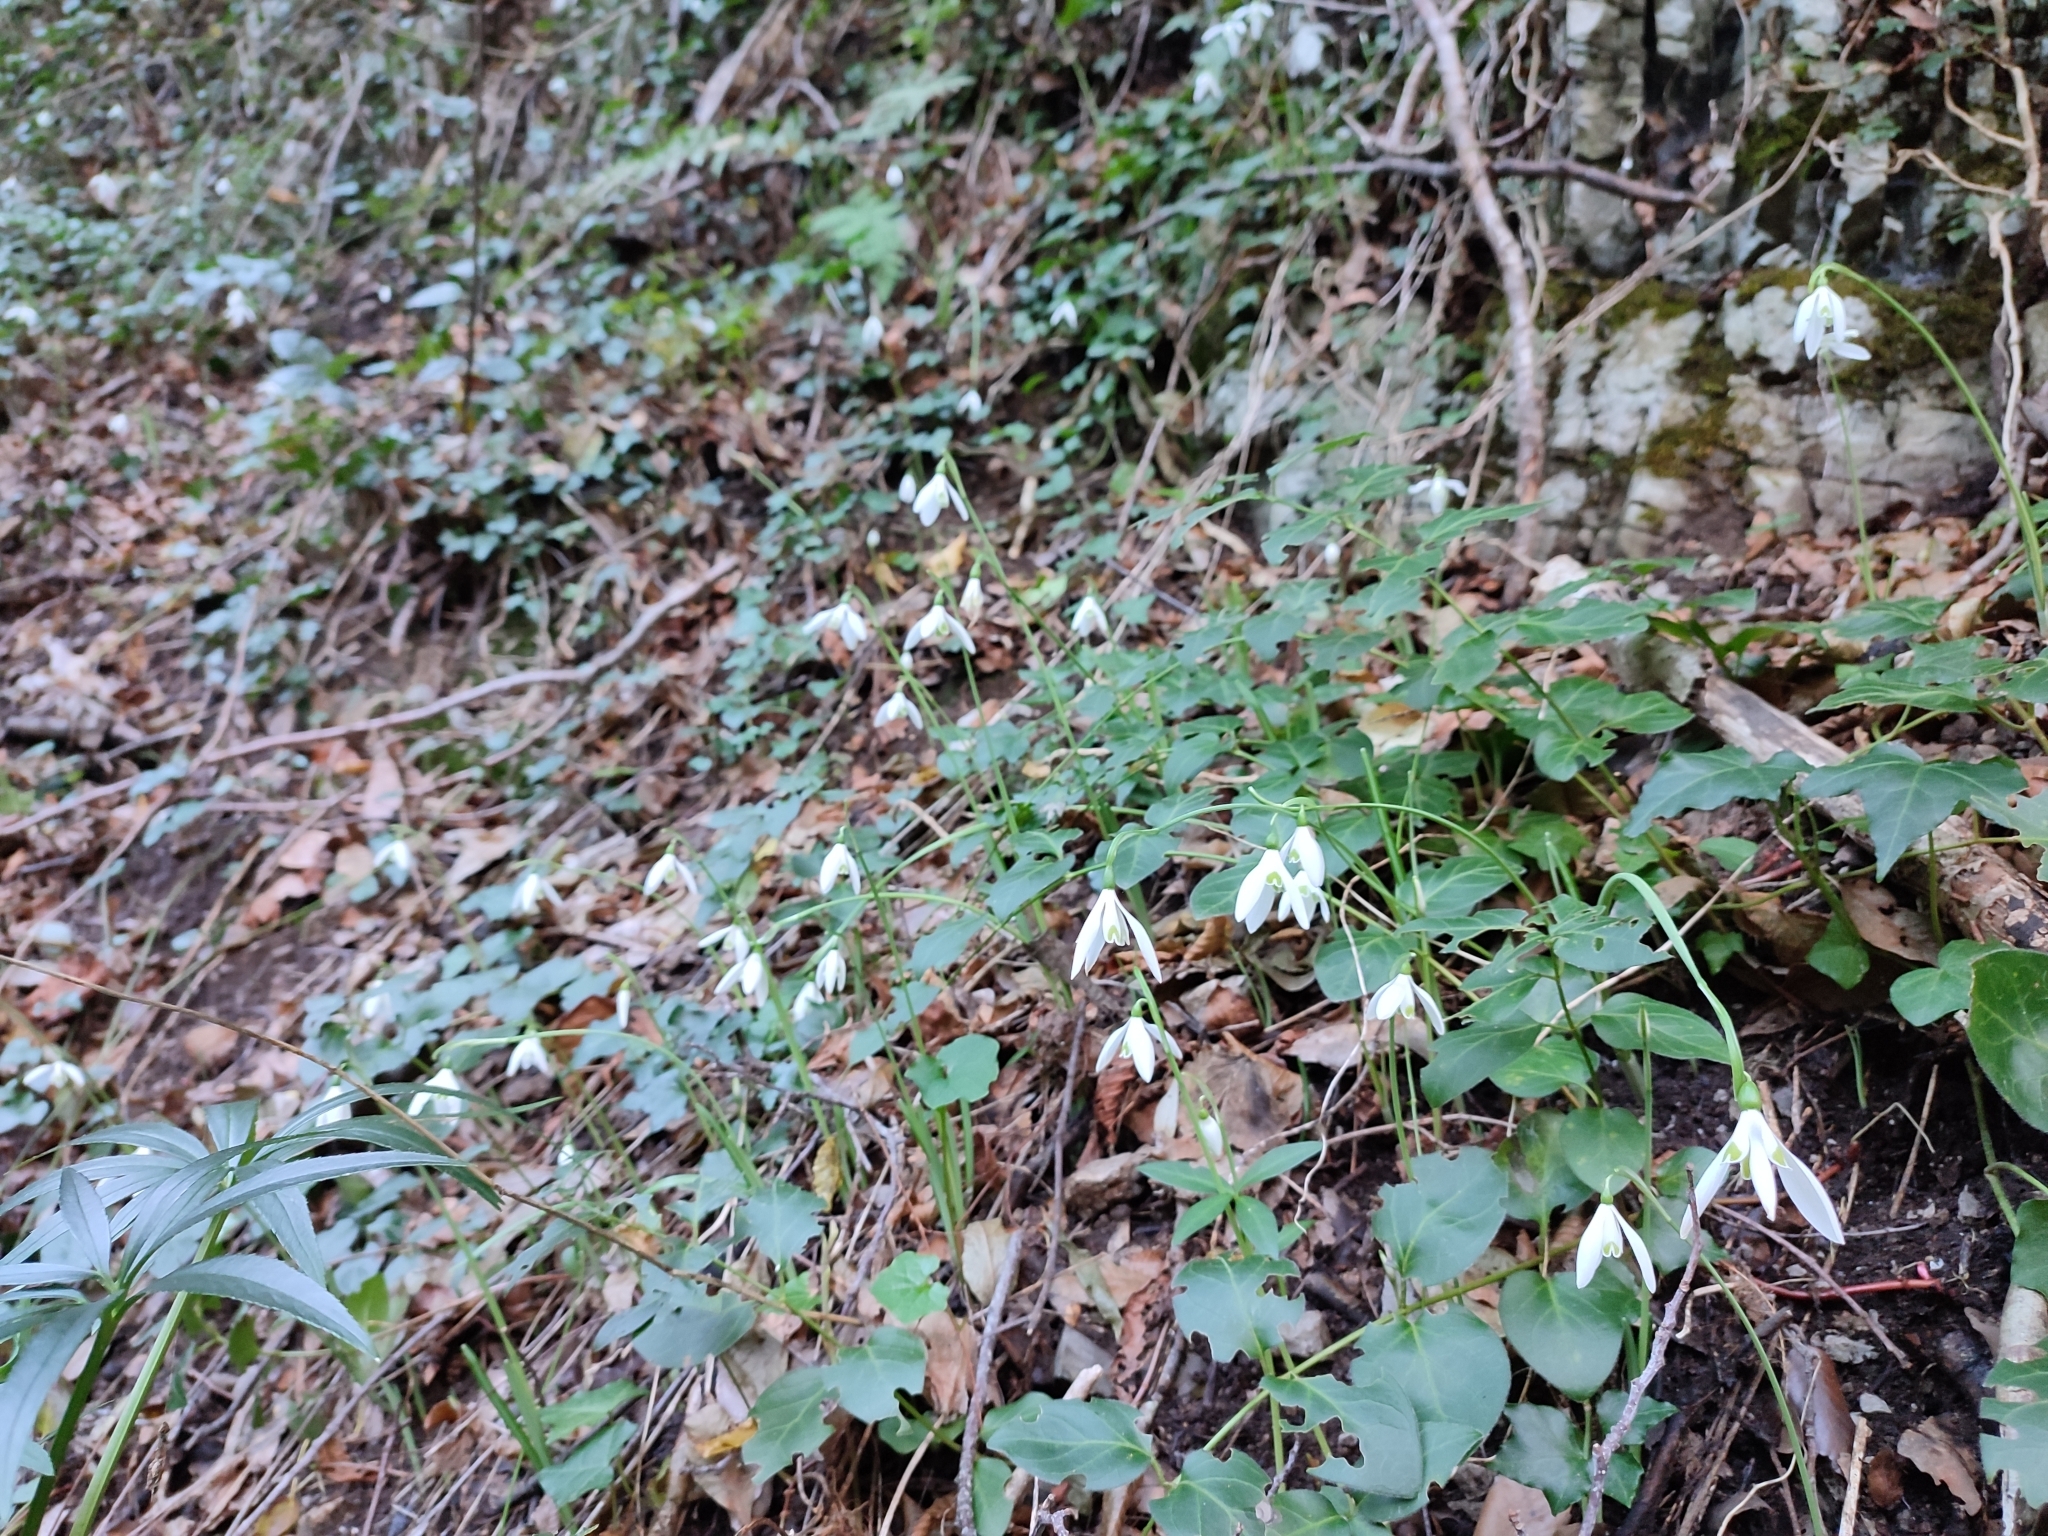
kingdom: Plantae
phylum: Tracheophyta
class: Liliopsida
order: Asparagales
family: Amaryllidaceae
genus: Galanthus
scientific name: Galanthus reginae-olgae
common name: Queen olga's snowdrop
